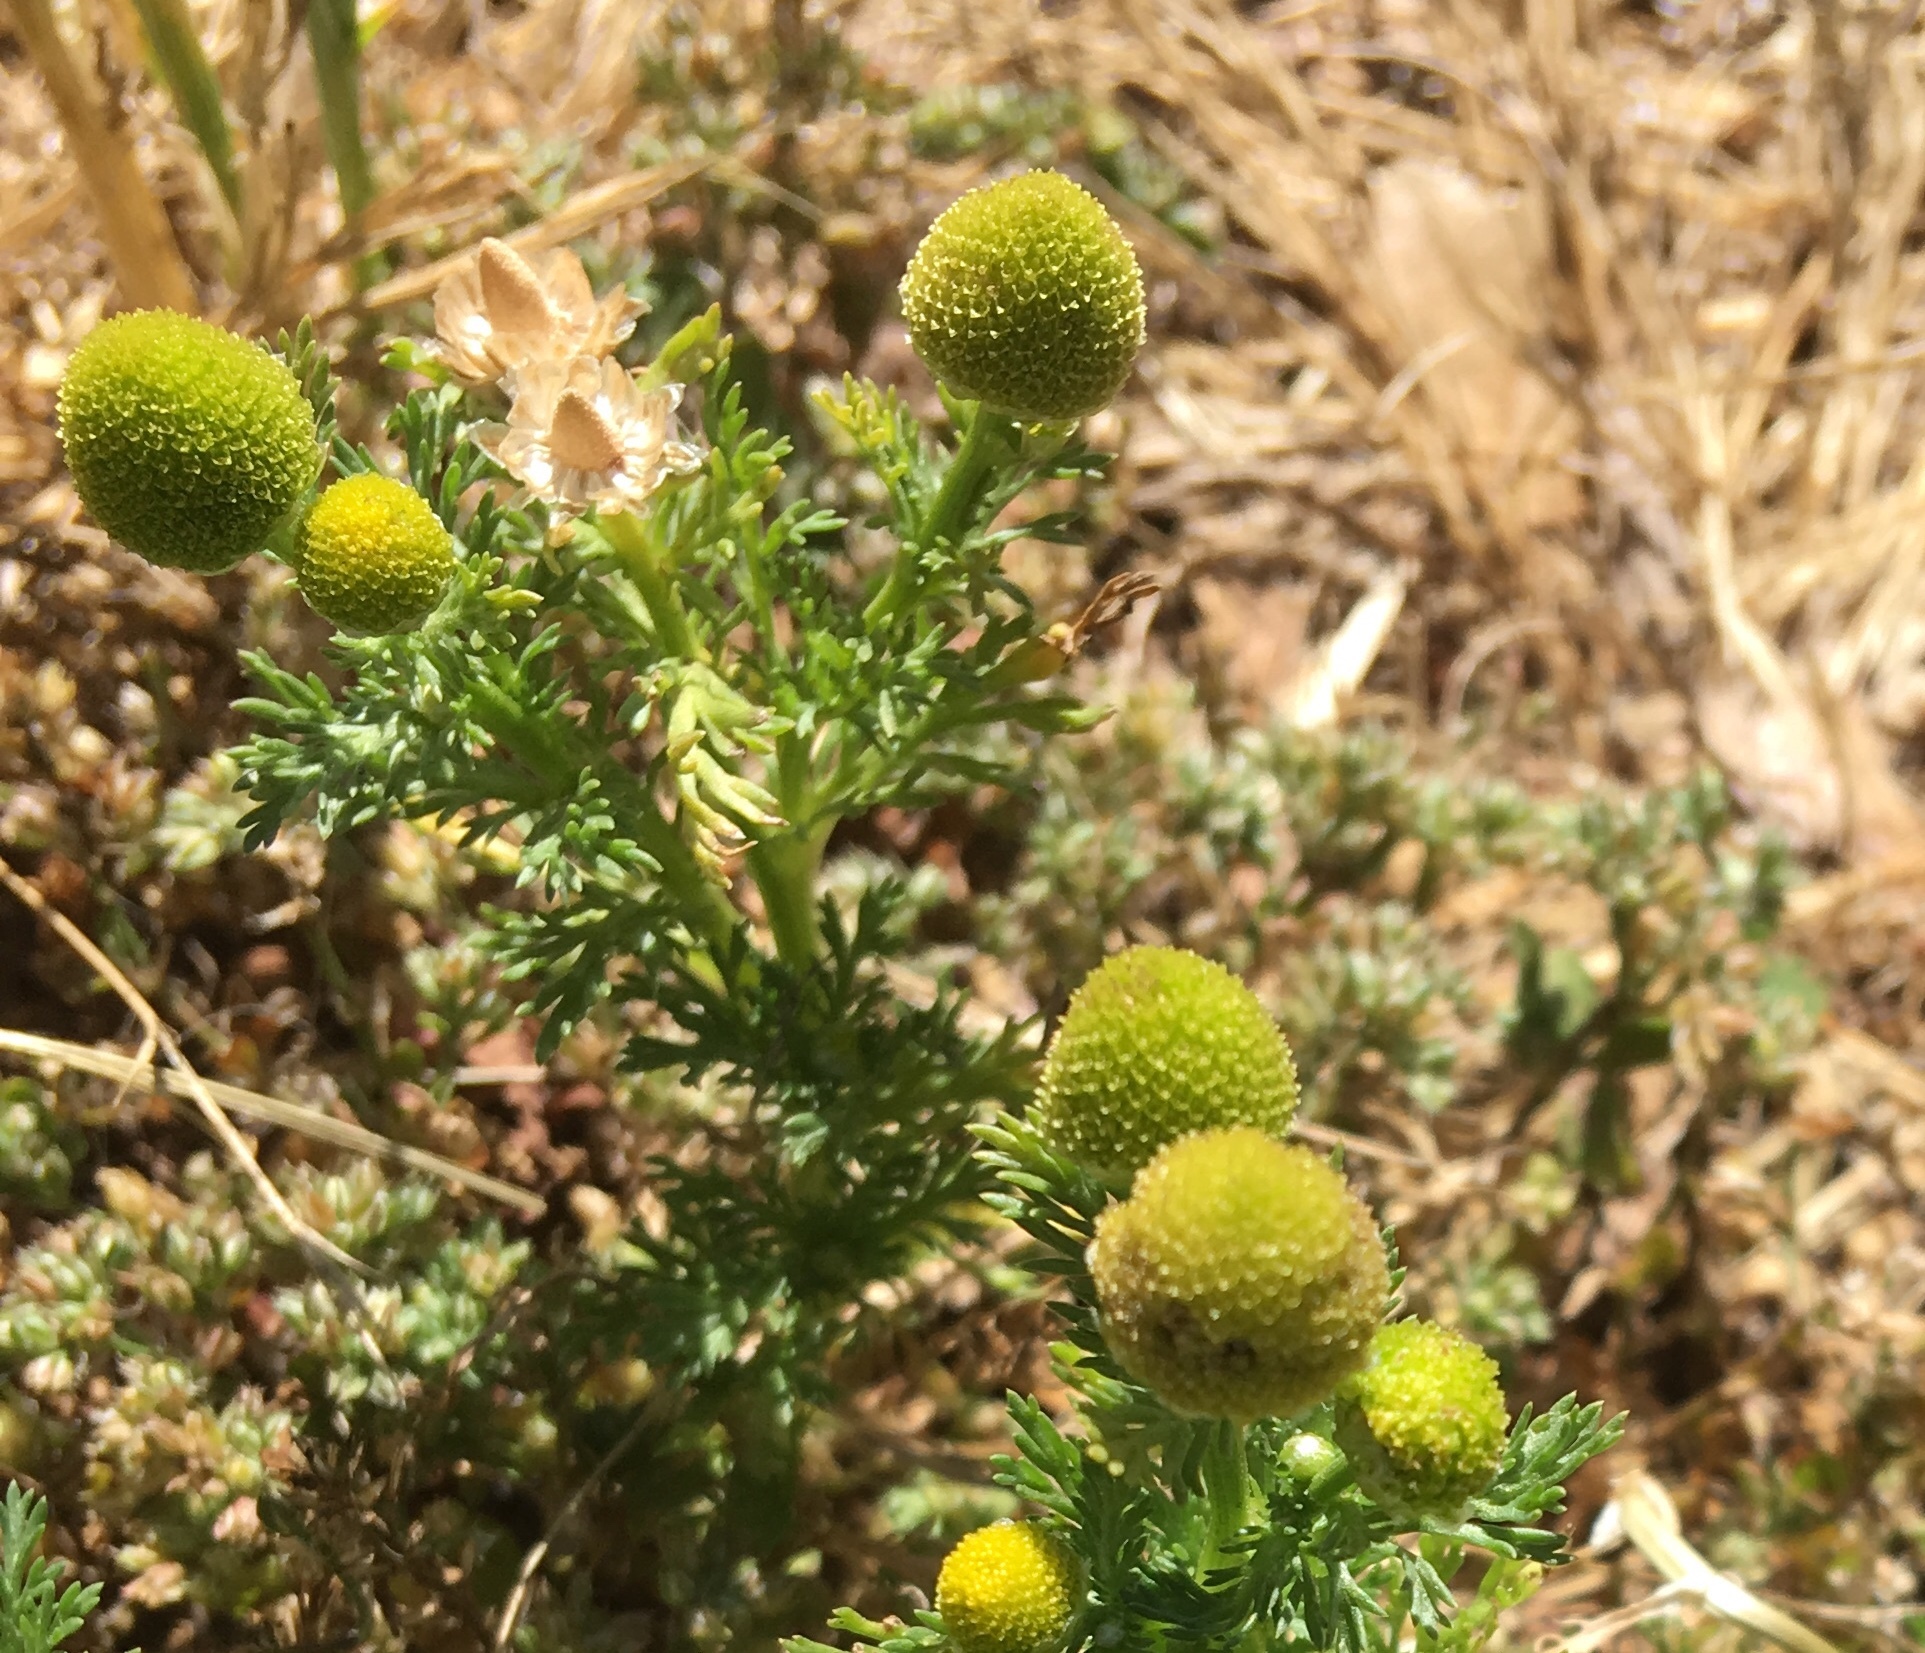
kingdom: Plantae
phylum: Tracheophyta
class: Magnoliopsida
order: Asterales
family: Asteraceae
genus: Matricaria
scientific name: Matricaria discoidea
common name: Disc mayweed
